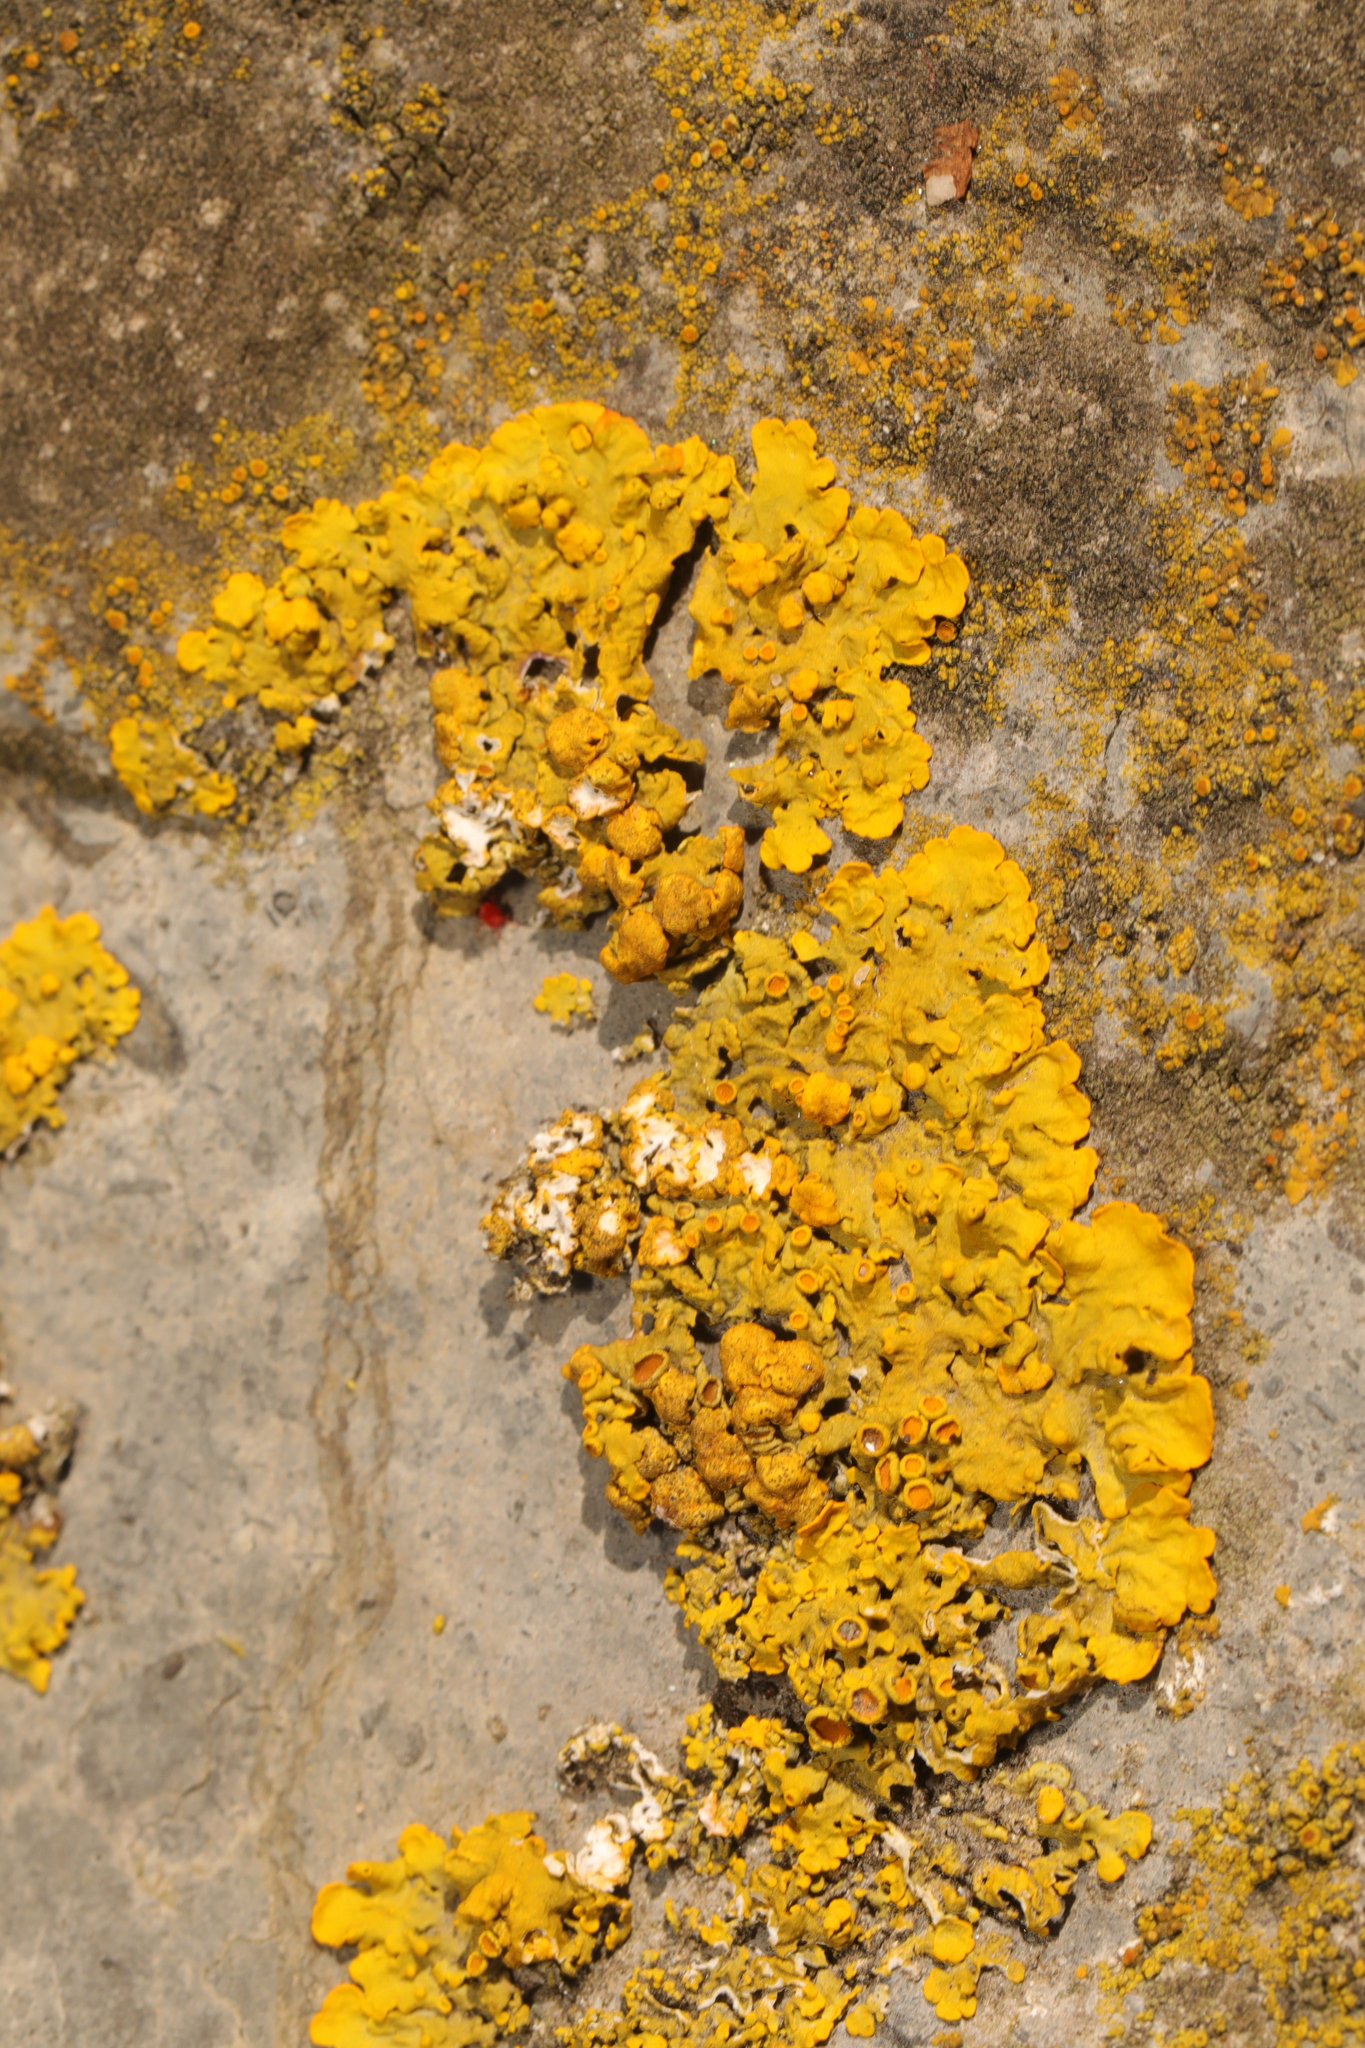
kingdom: Fungi
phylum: Ascomycota
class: Lecanoromycetes
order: Teloschistales
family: Teloschistaceae
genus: Xanthoria
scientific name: Xanthoria parietina
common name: Common orange lichen
